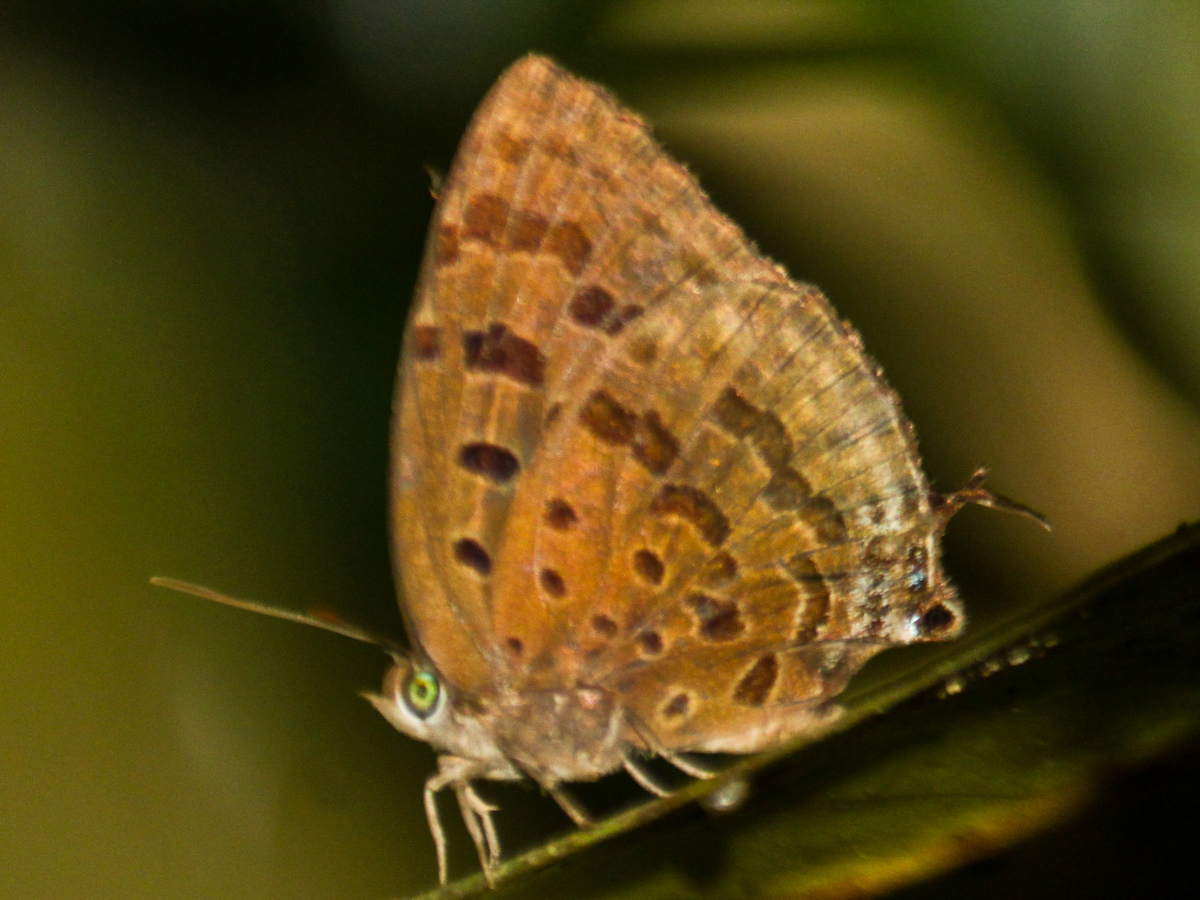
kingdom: Animalia
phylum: Arthropoda
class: Insecta
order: Lepidoptera
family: Lycaenidae
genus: Arhopala
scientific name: Arhopala
